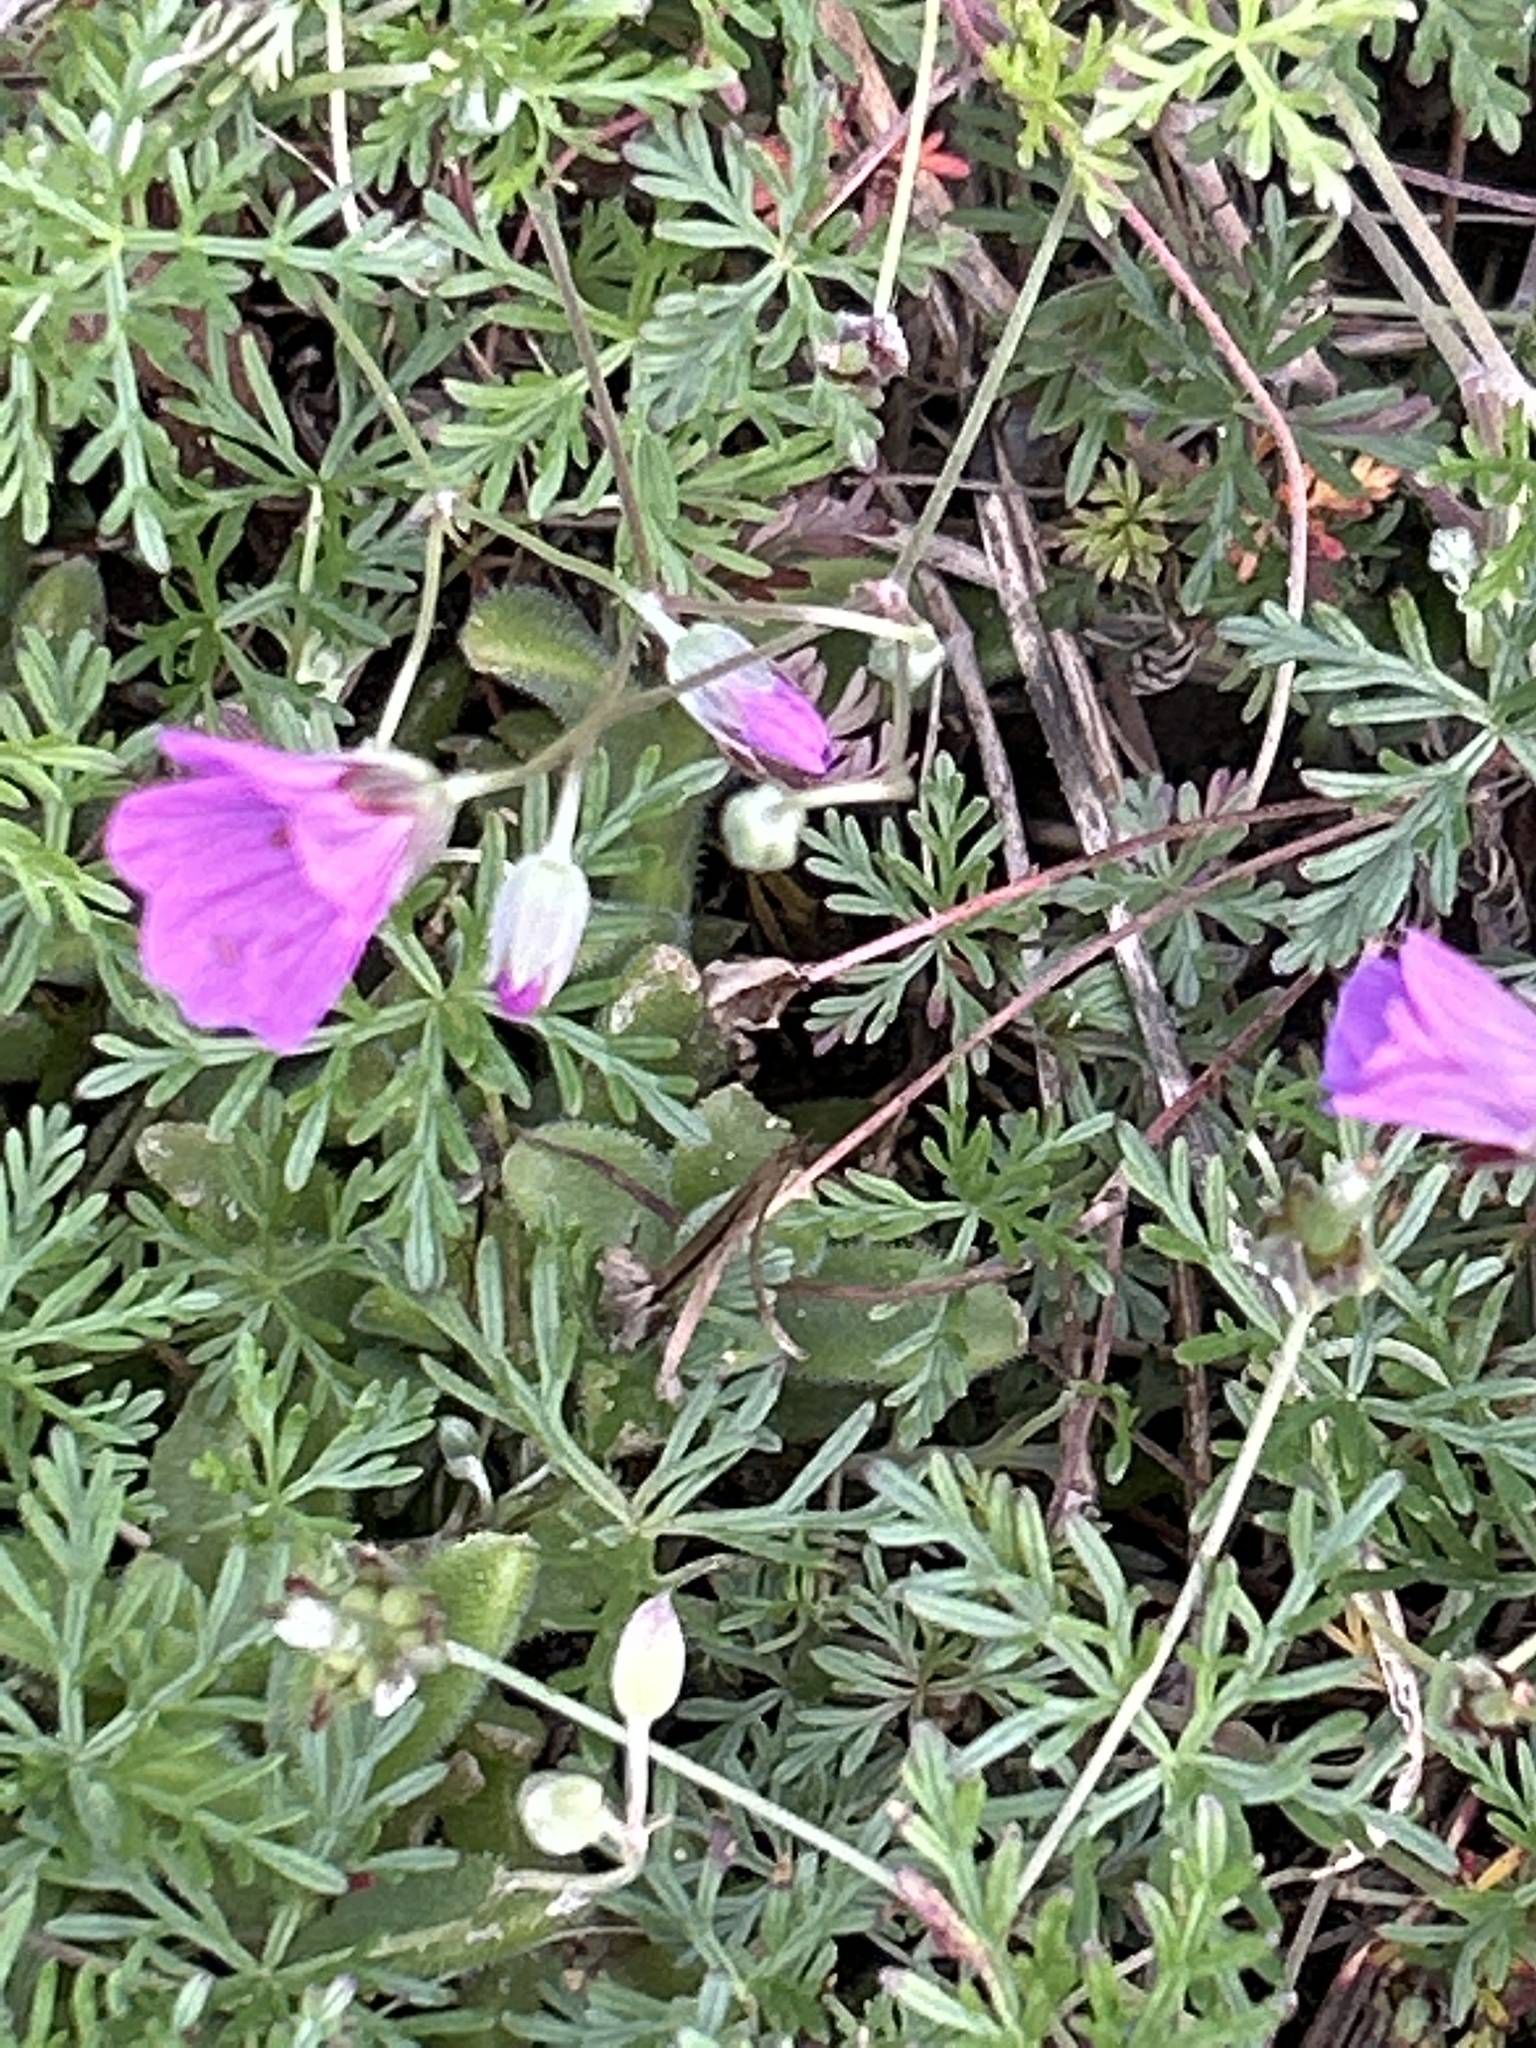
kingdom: Plantae
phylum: Tracheophyta
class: Magnoliopsida
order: Geraniales
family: Geraniaceae
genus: Geranium
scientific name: Geranium incanum
